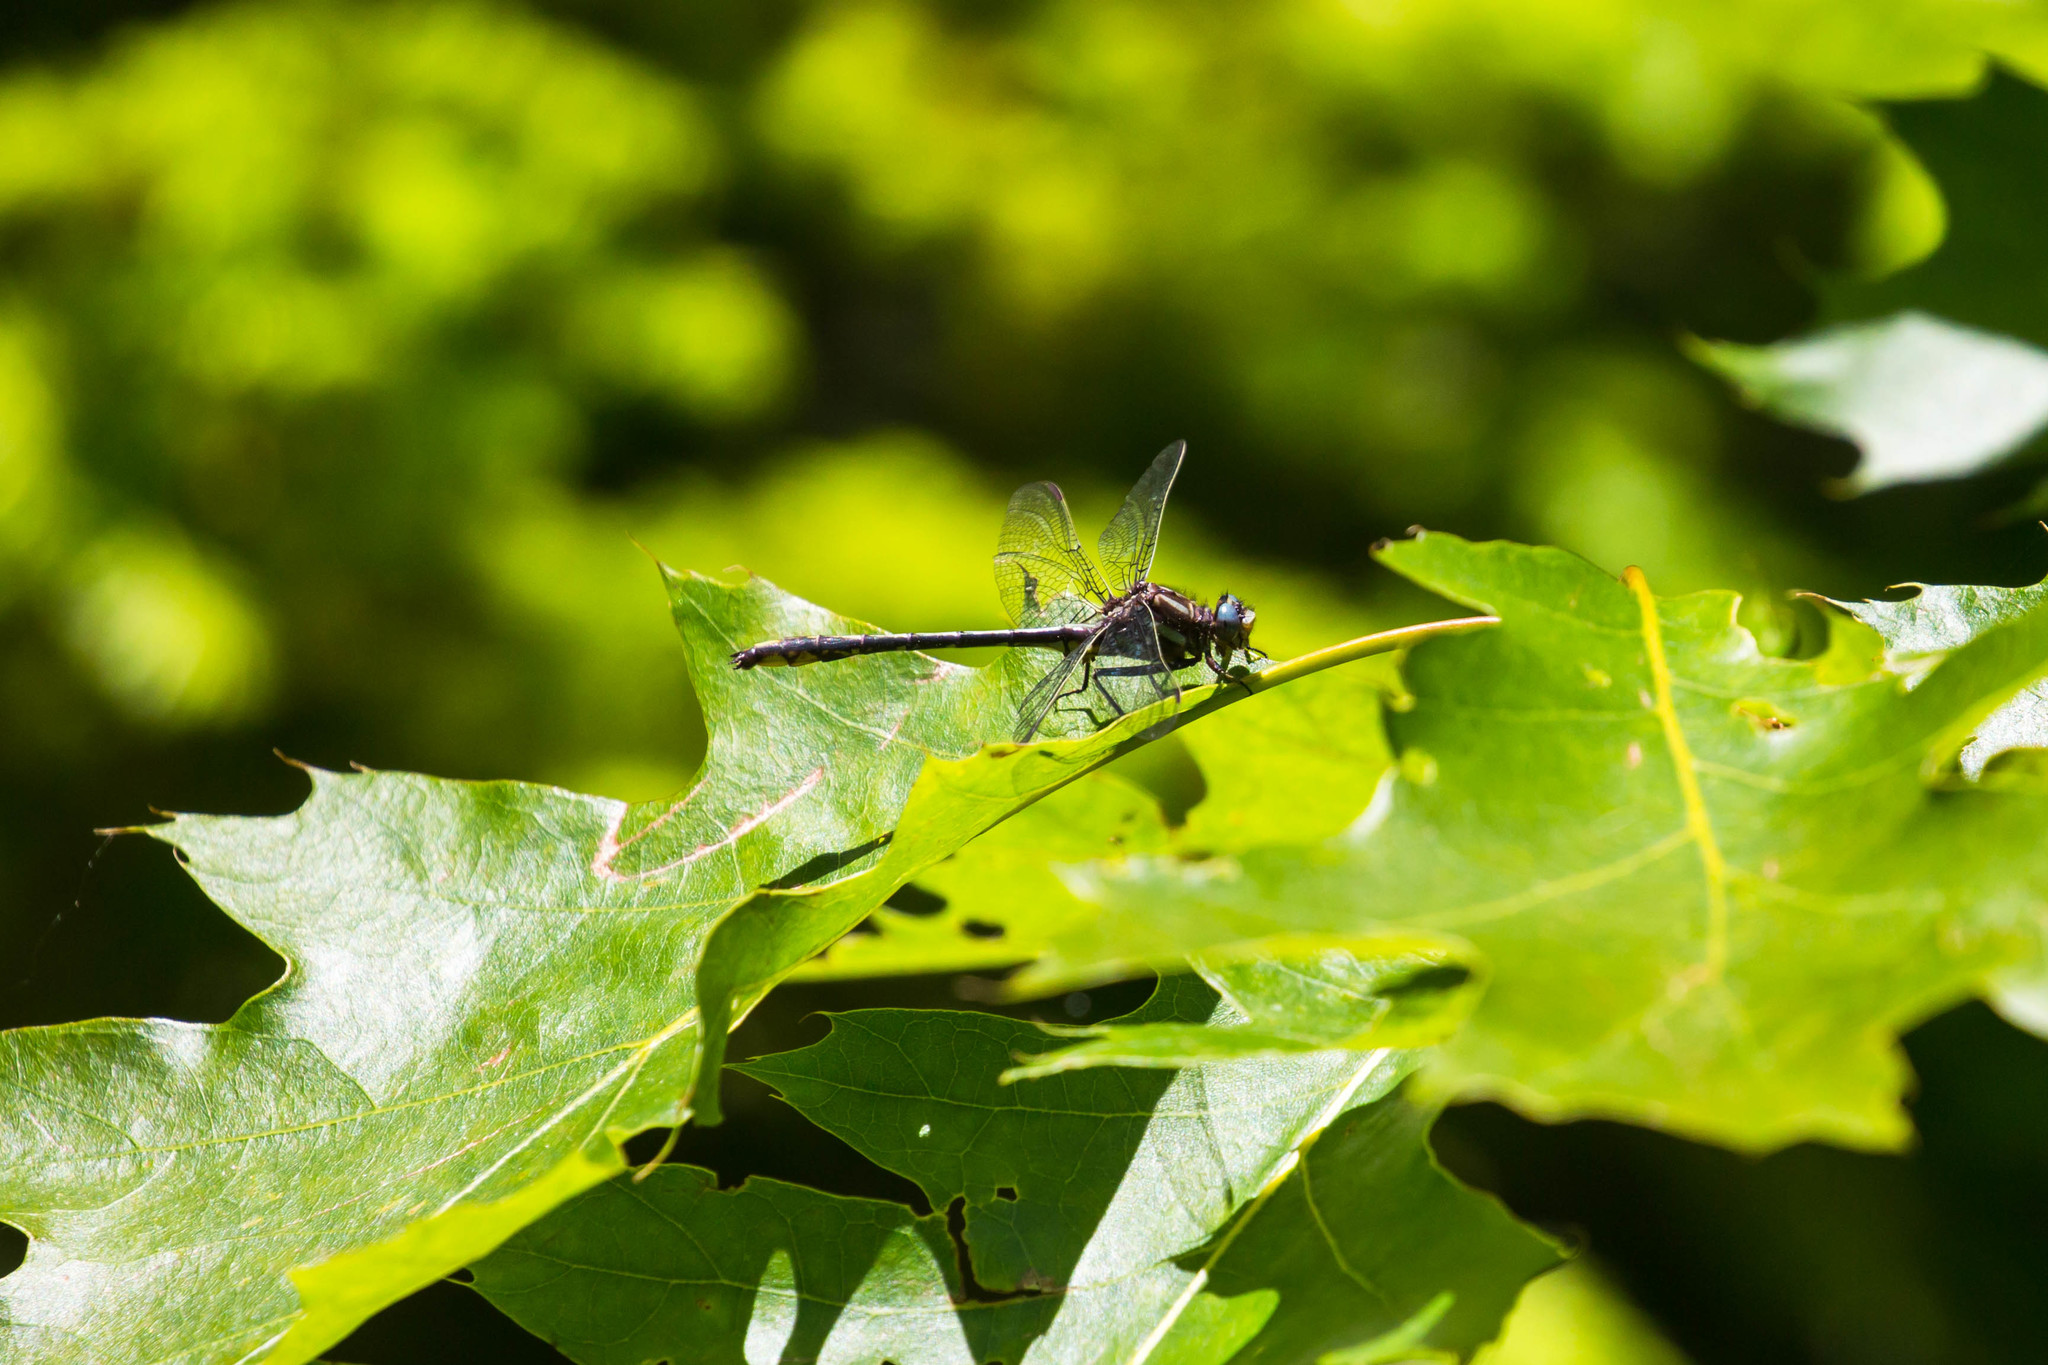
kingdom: Animalia
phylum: Arthropoda
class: Insecta
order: Odonata
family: Gomphidae
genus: Phanogomphus
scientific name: Phanogomphus exilis
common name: Lancet clubtail
